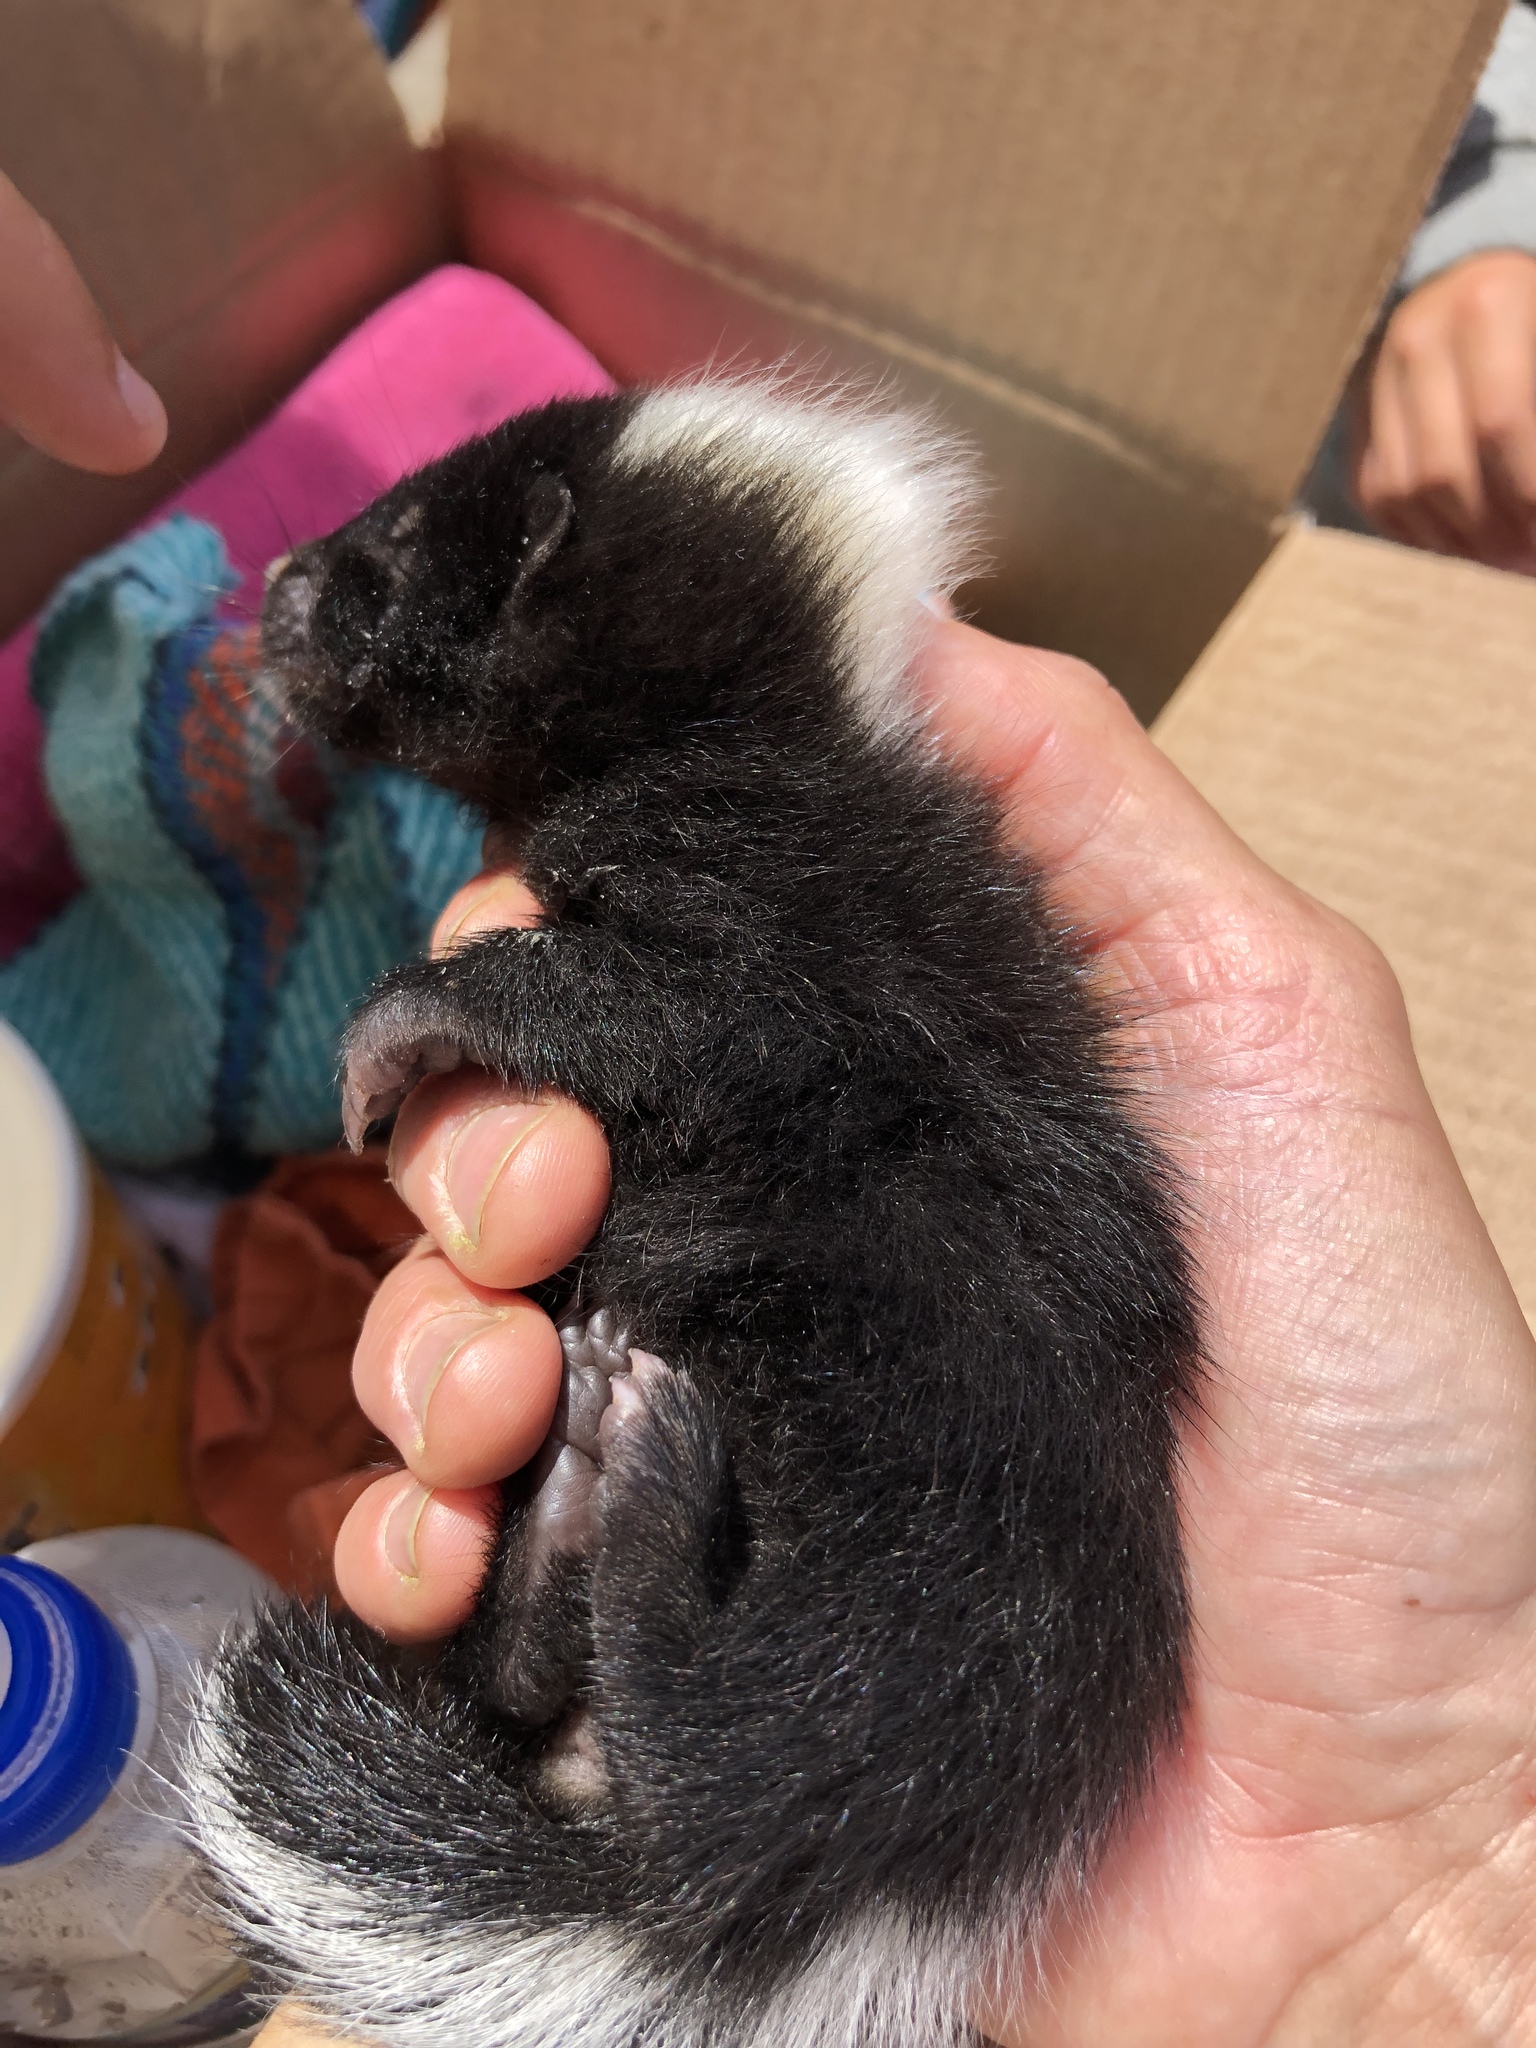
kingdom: Animalia
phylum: Chordata
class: Mammalia
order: Carnivora
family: Mephitidae
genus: Mephitis
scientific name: Mephitis mephitis
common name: Striped skunk
